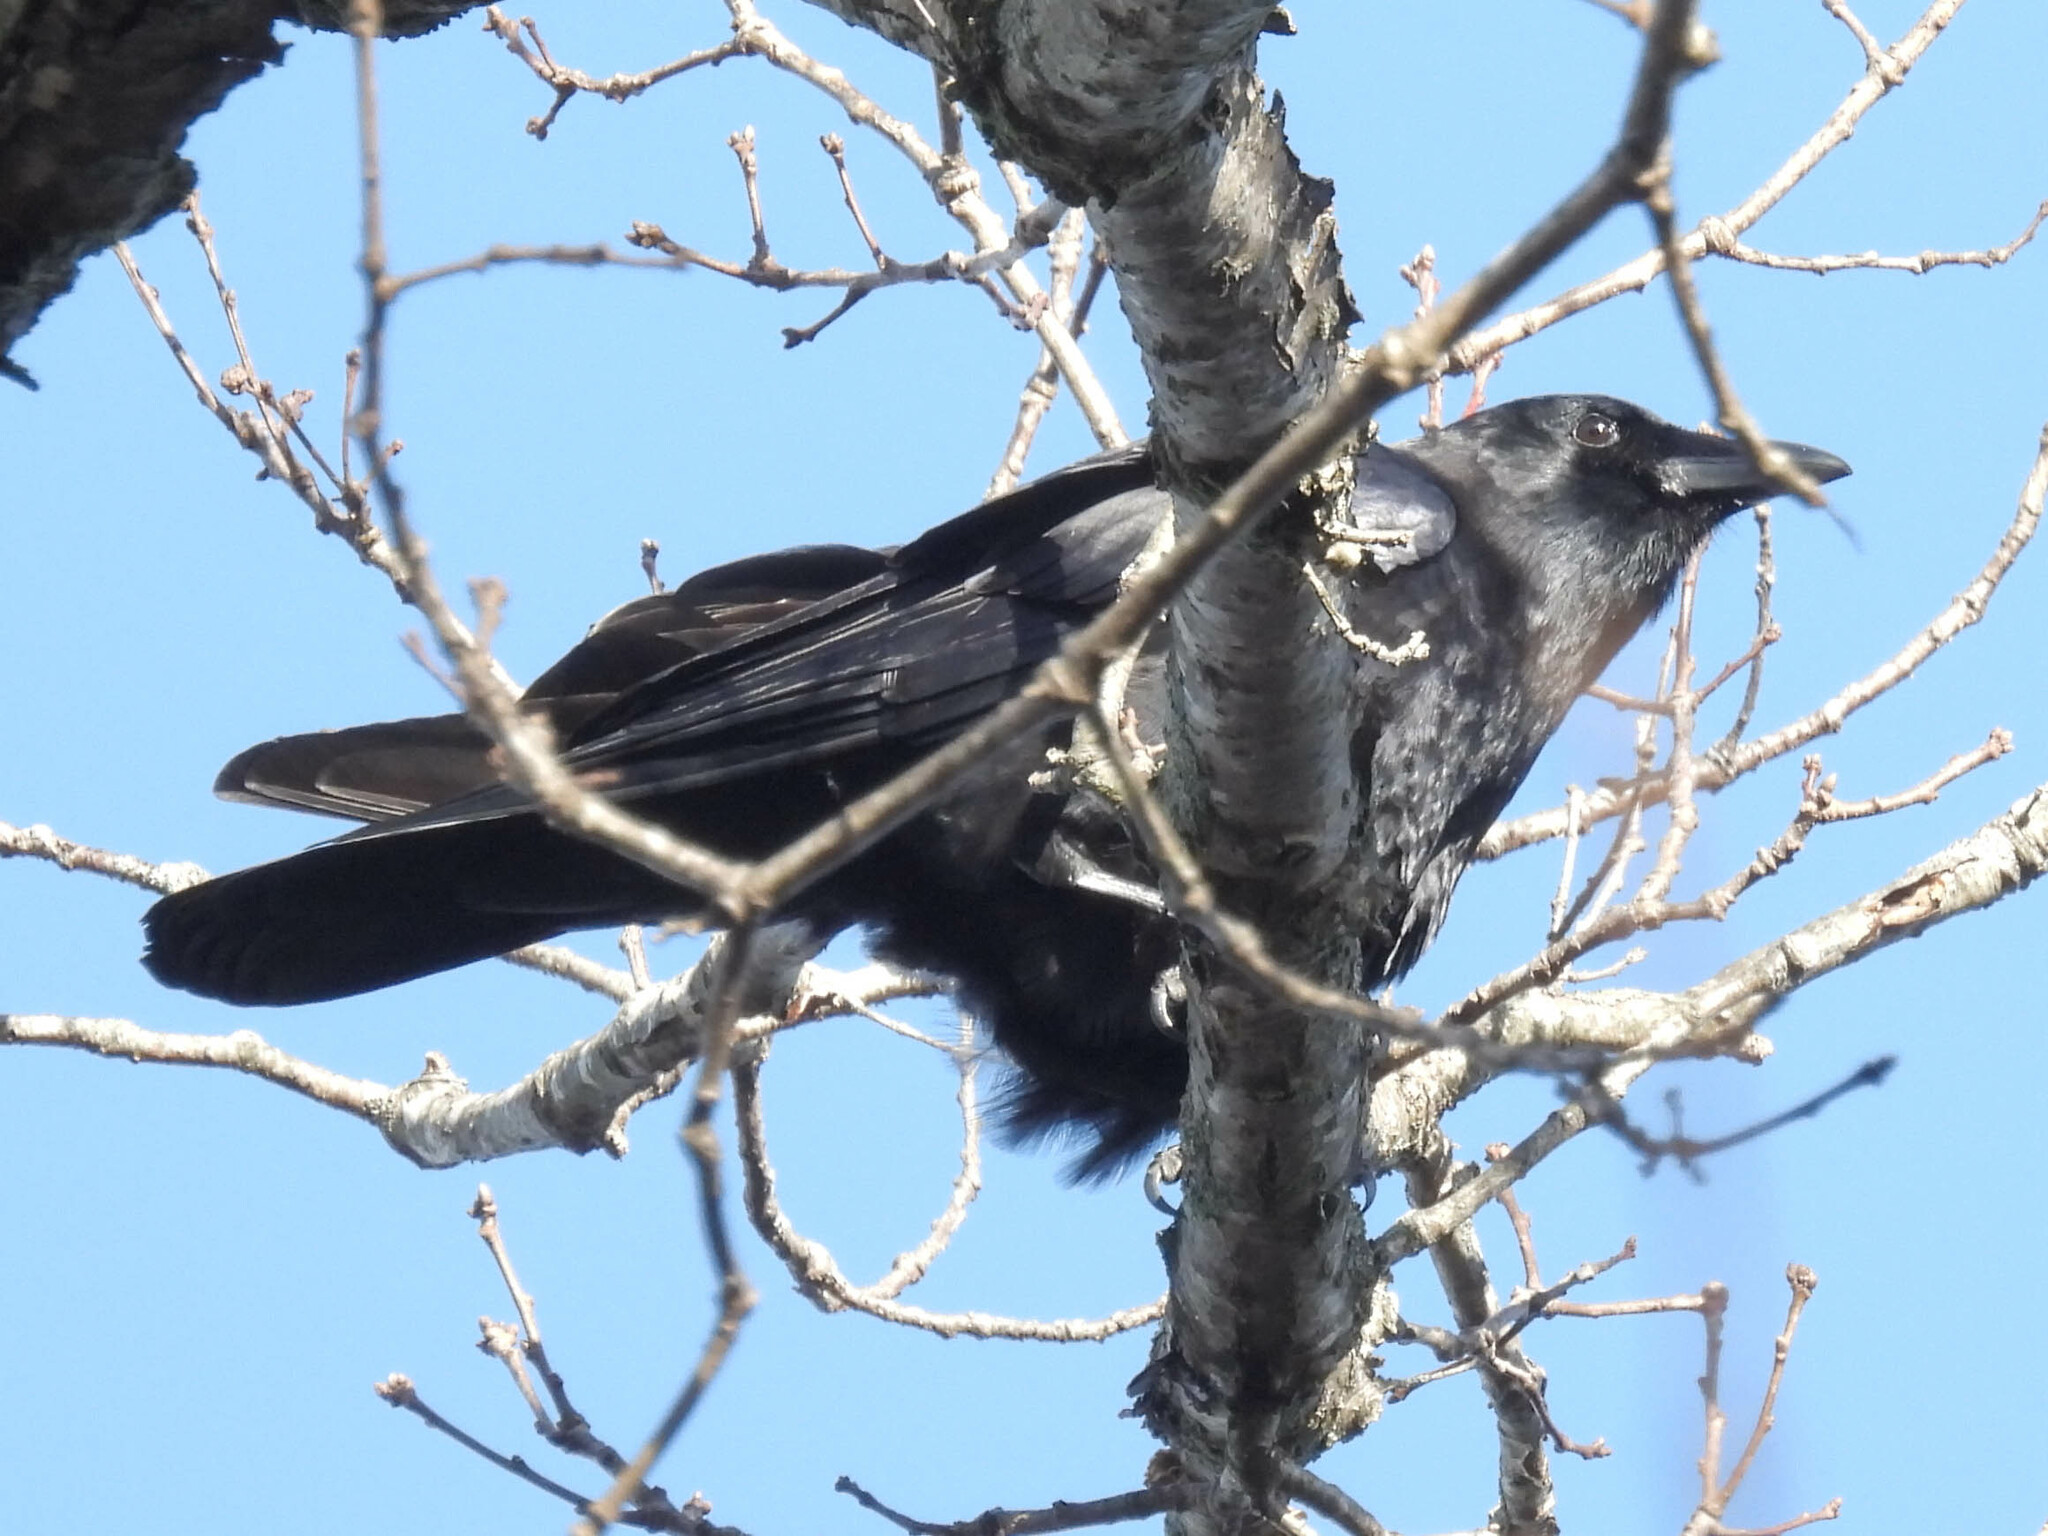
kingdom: Animalia
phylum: Chordata
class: Aves
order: Passeriformes
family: Corvidae
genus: Corvus
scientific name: Corvus brachyrhynchos
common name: American crow
